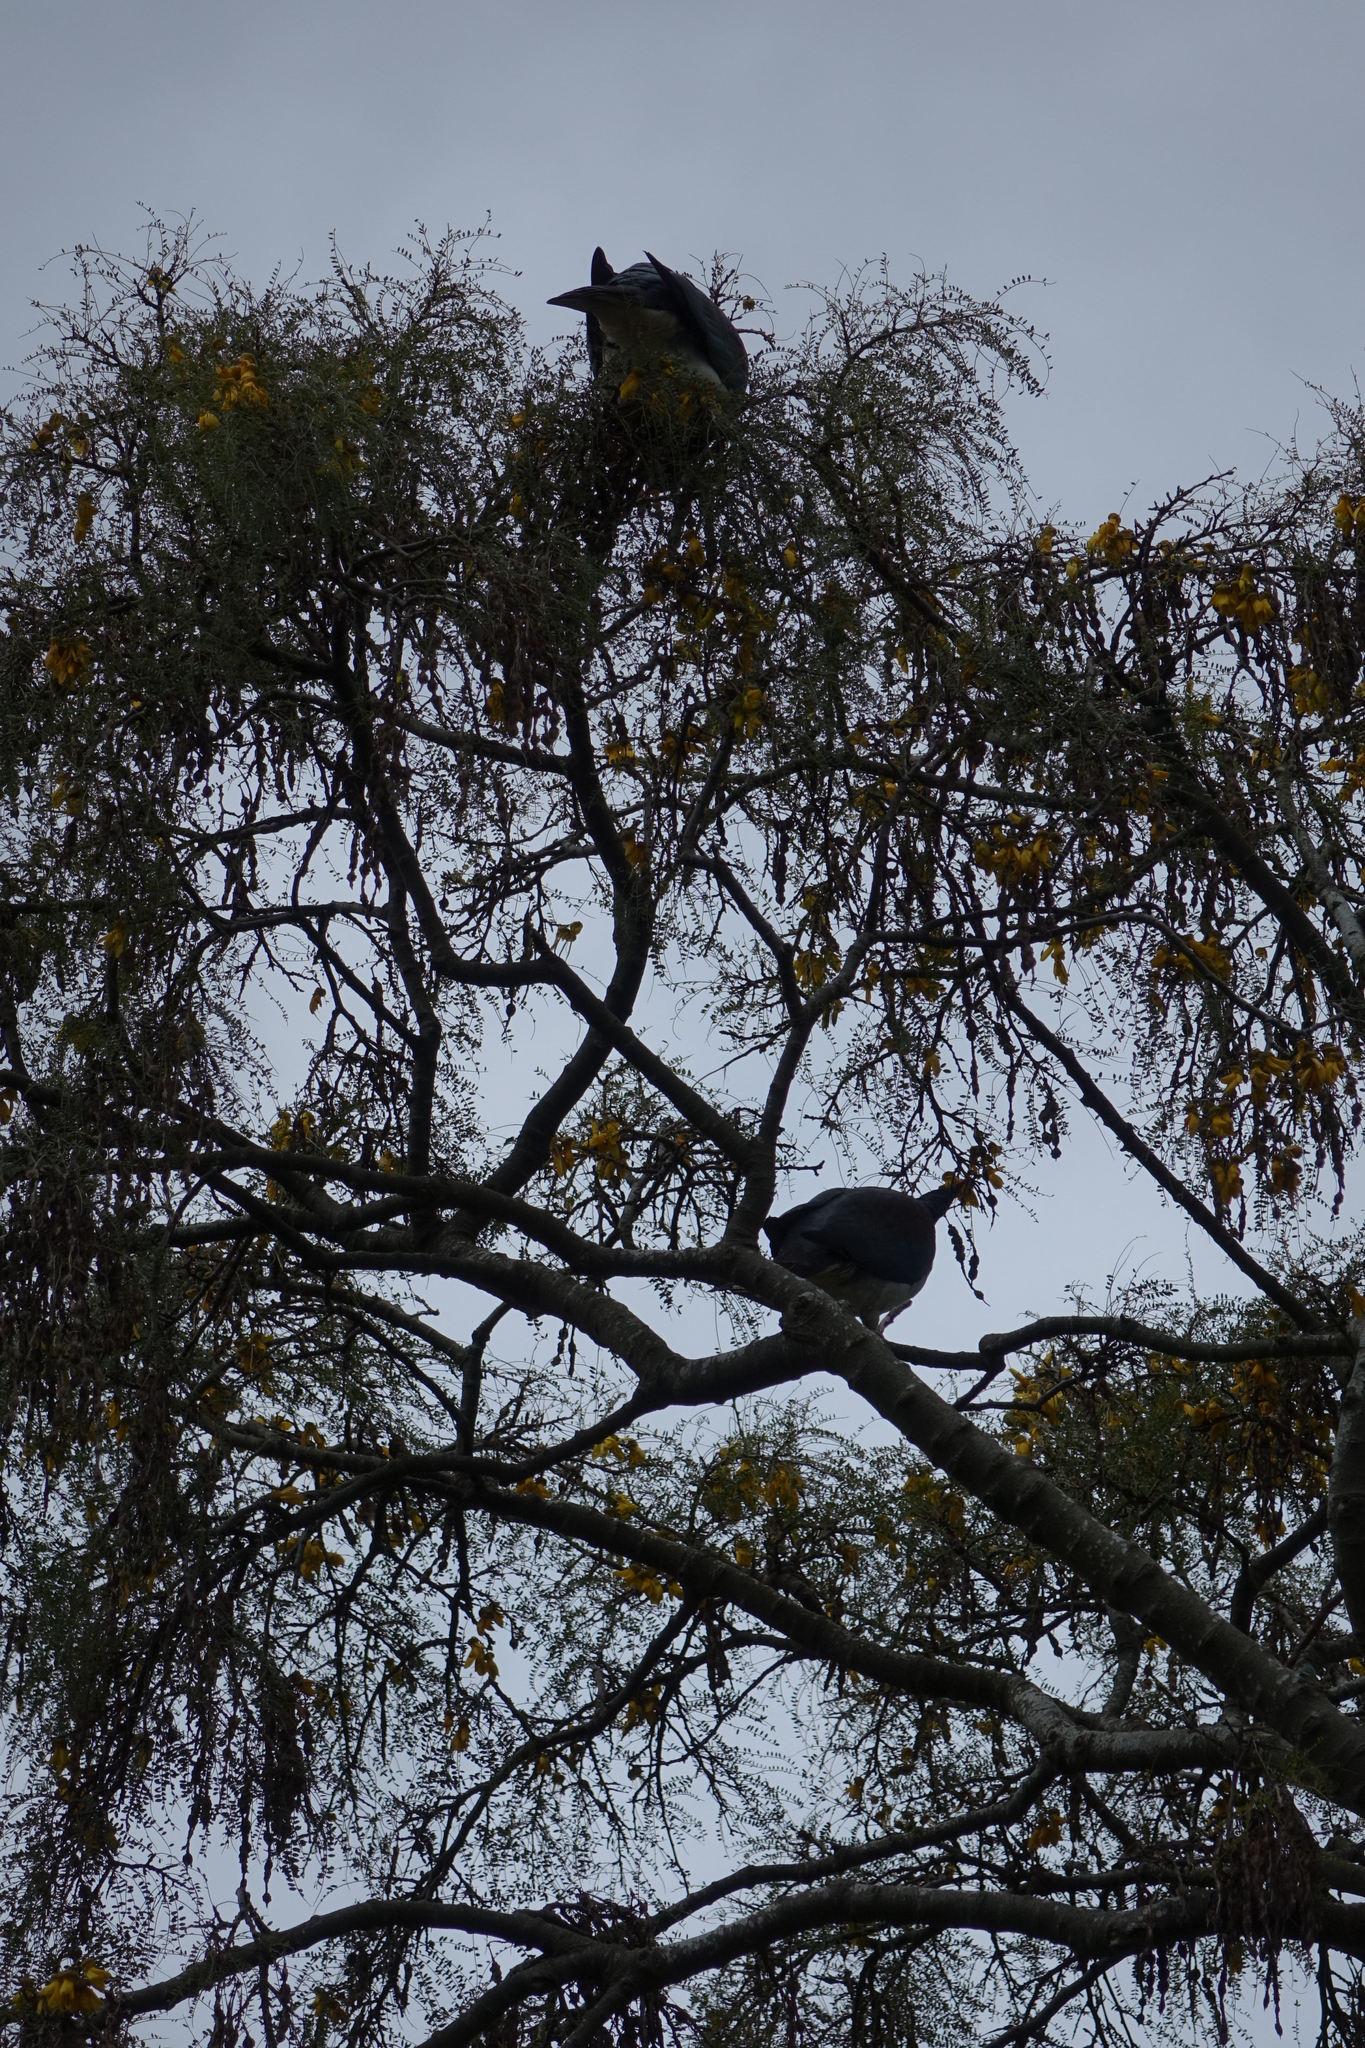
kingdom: Animalia
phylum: Chordata
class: Aves
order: Columbiformes
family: Columbidae
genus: Hemiphaga
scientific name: Hemiphaga novaeseelandiae
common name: New zealand pigeon
